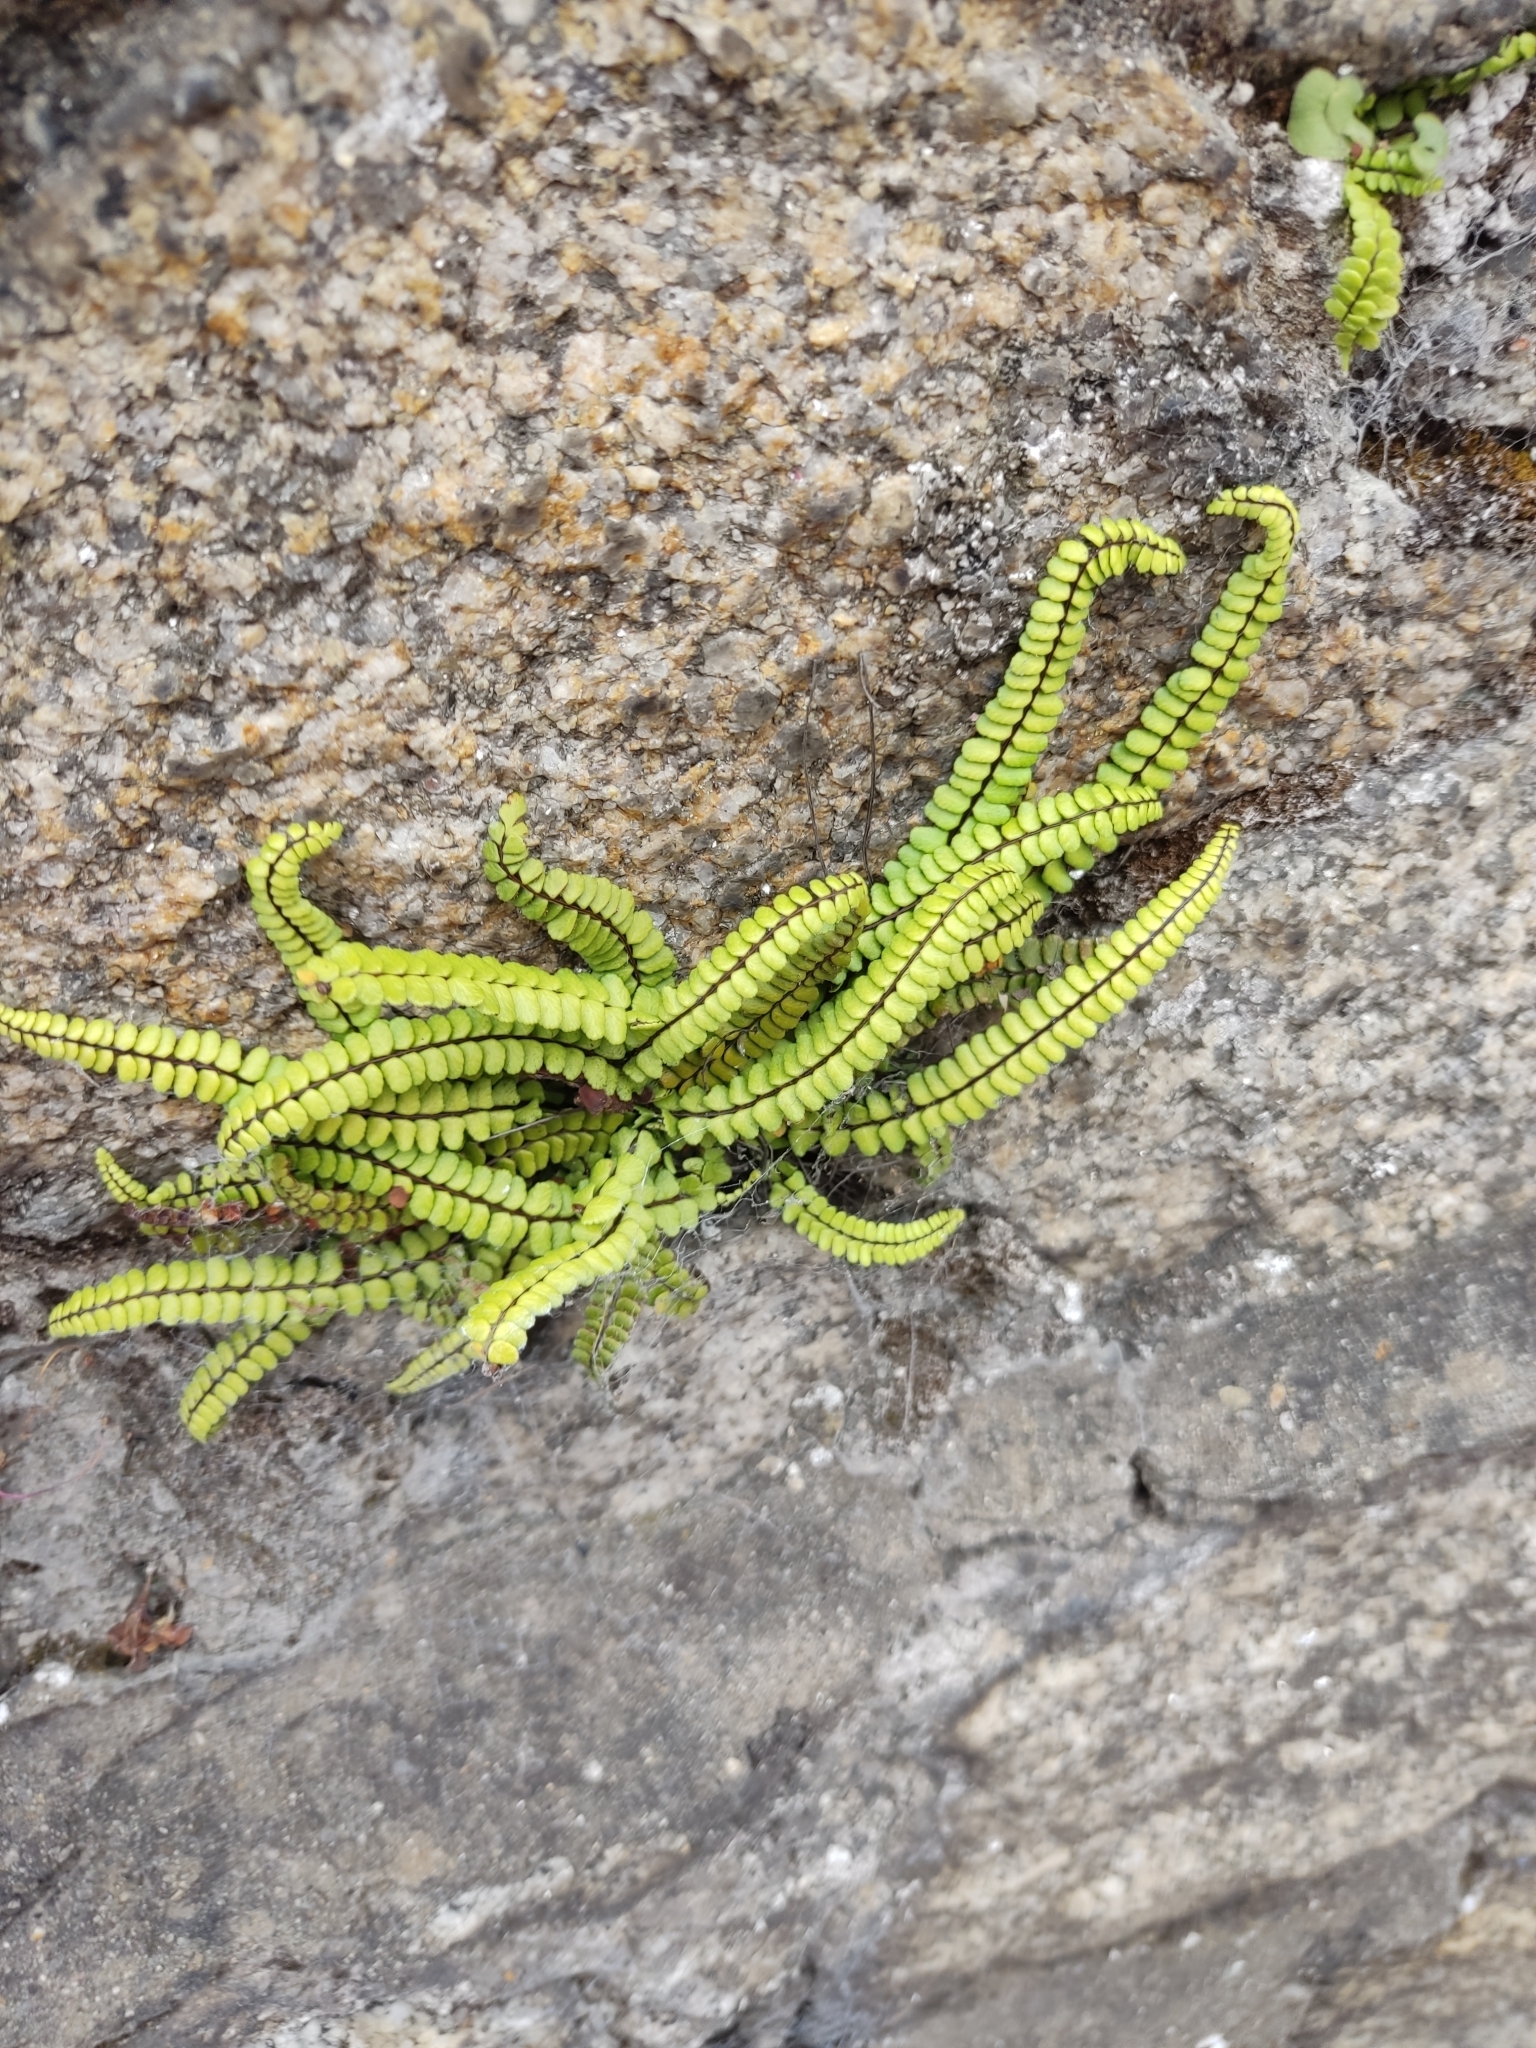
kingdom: Plantae
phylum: Tracheophyta
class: Polypodiopsida
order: Polypodiales
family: Aspleniaceae
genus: Asplenium
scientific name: Asplenium trichomanes
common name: Maidenhair spleenwort
